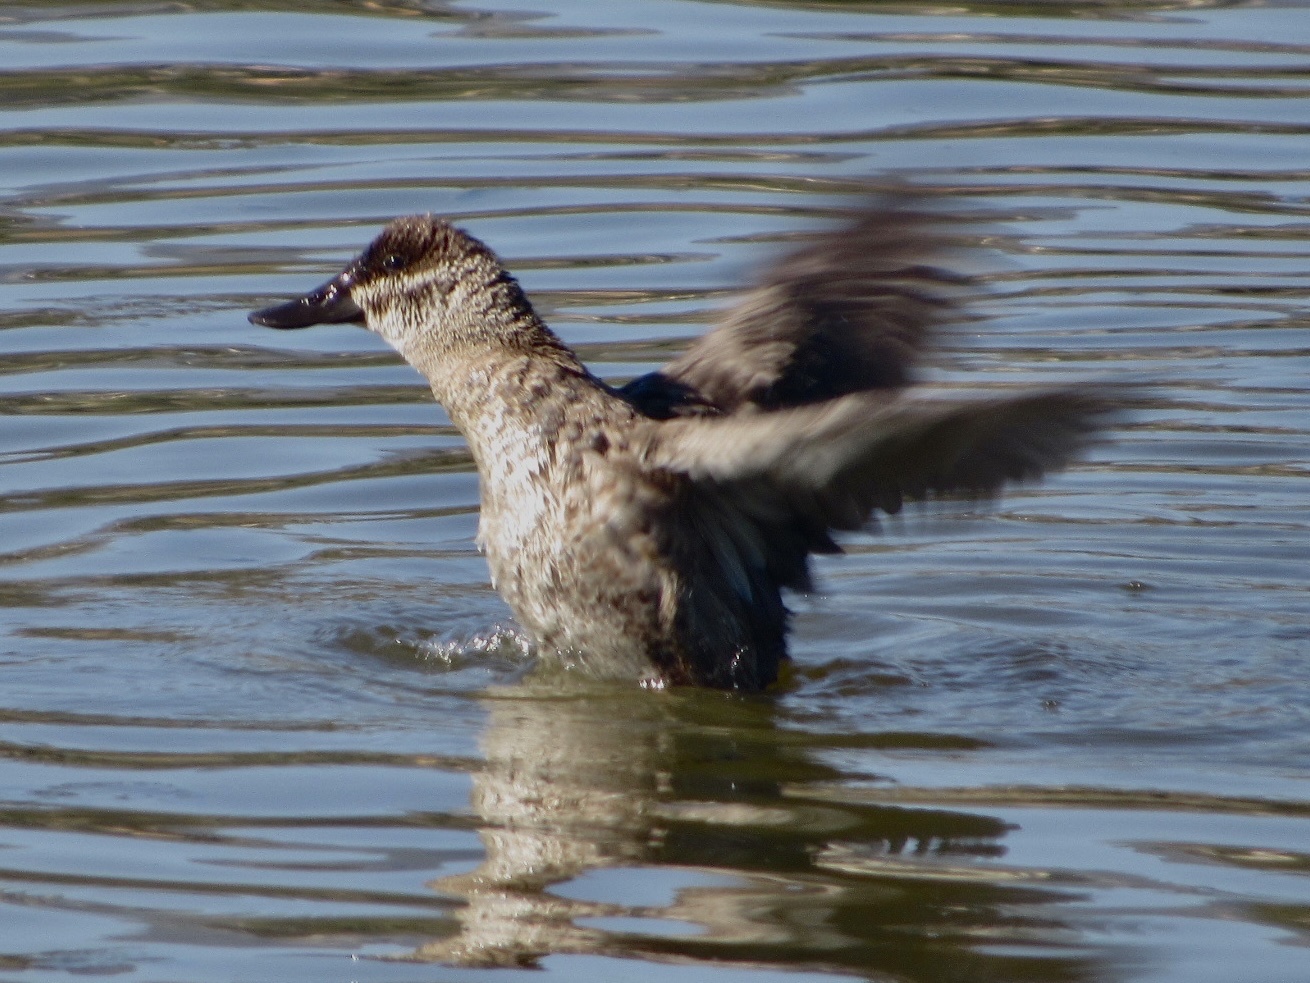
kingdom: Animalia
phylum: Chordata
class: Aves
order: Anseriformes
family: Anatidae
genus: Oxyura
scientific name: Oxyura jamaicensis
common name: Ruddy duck
